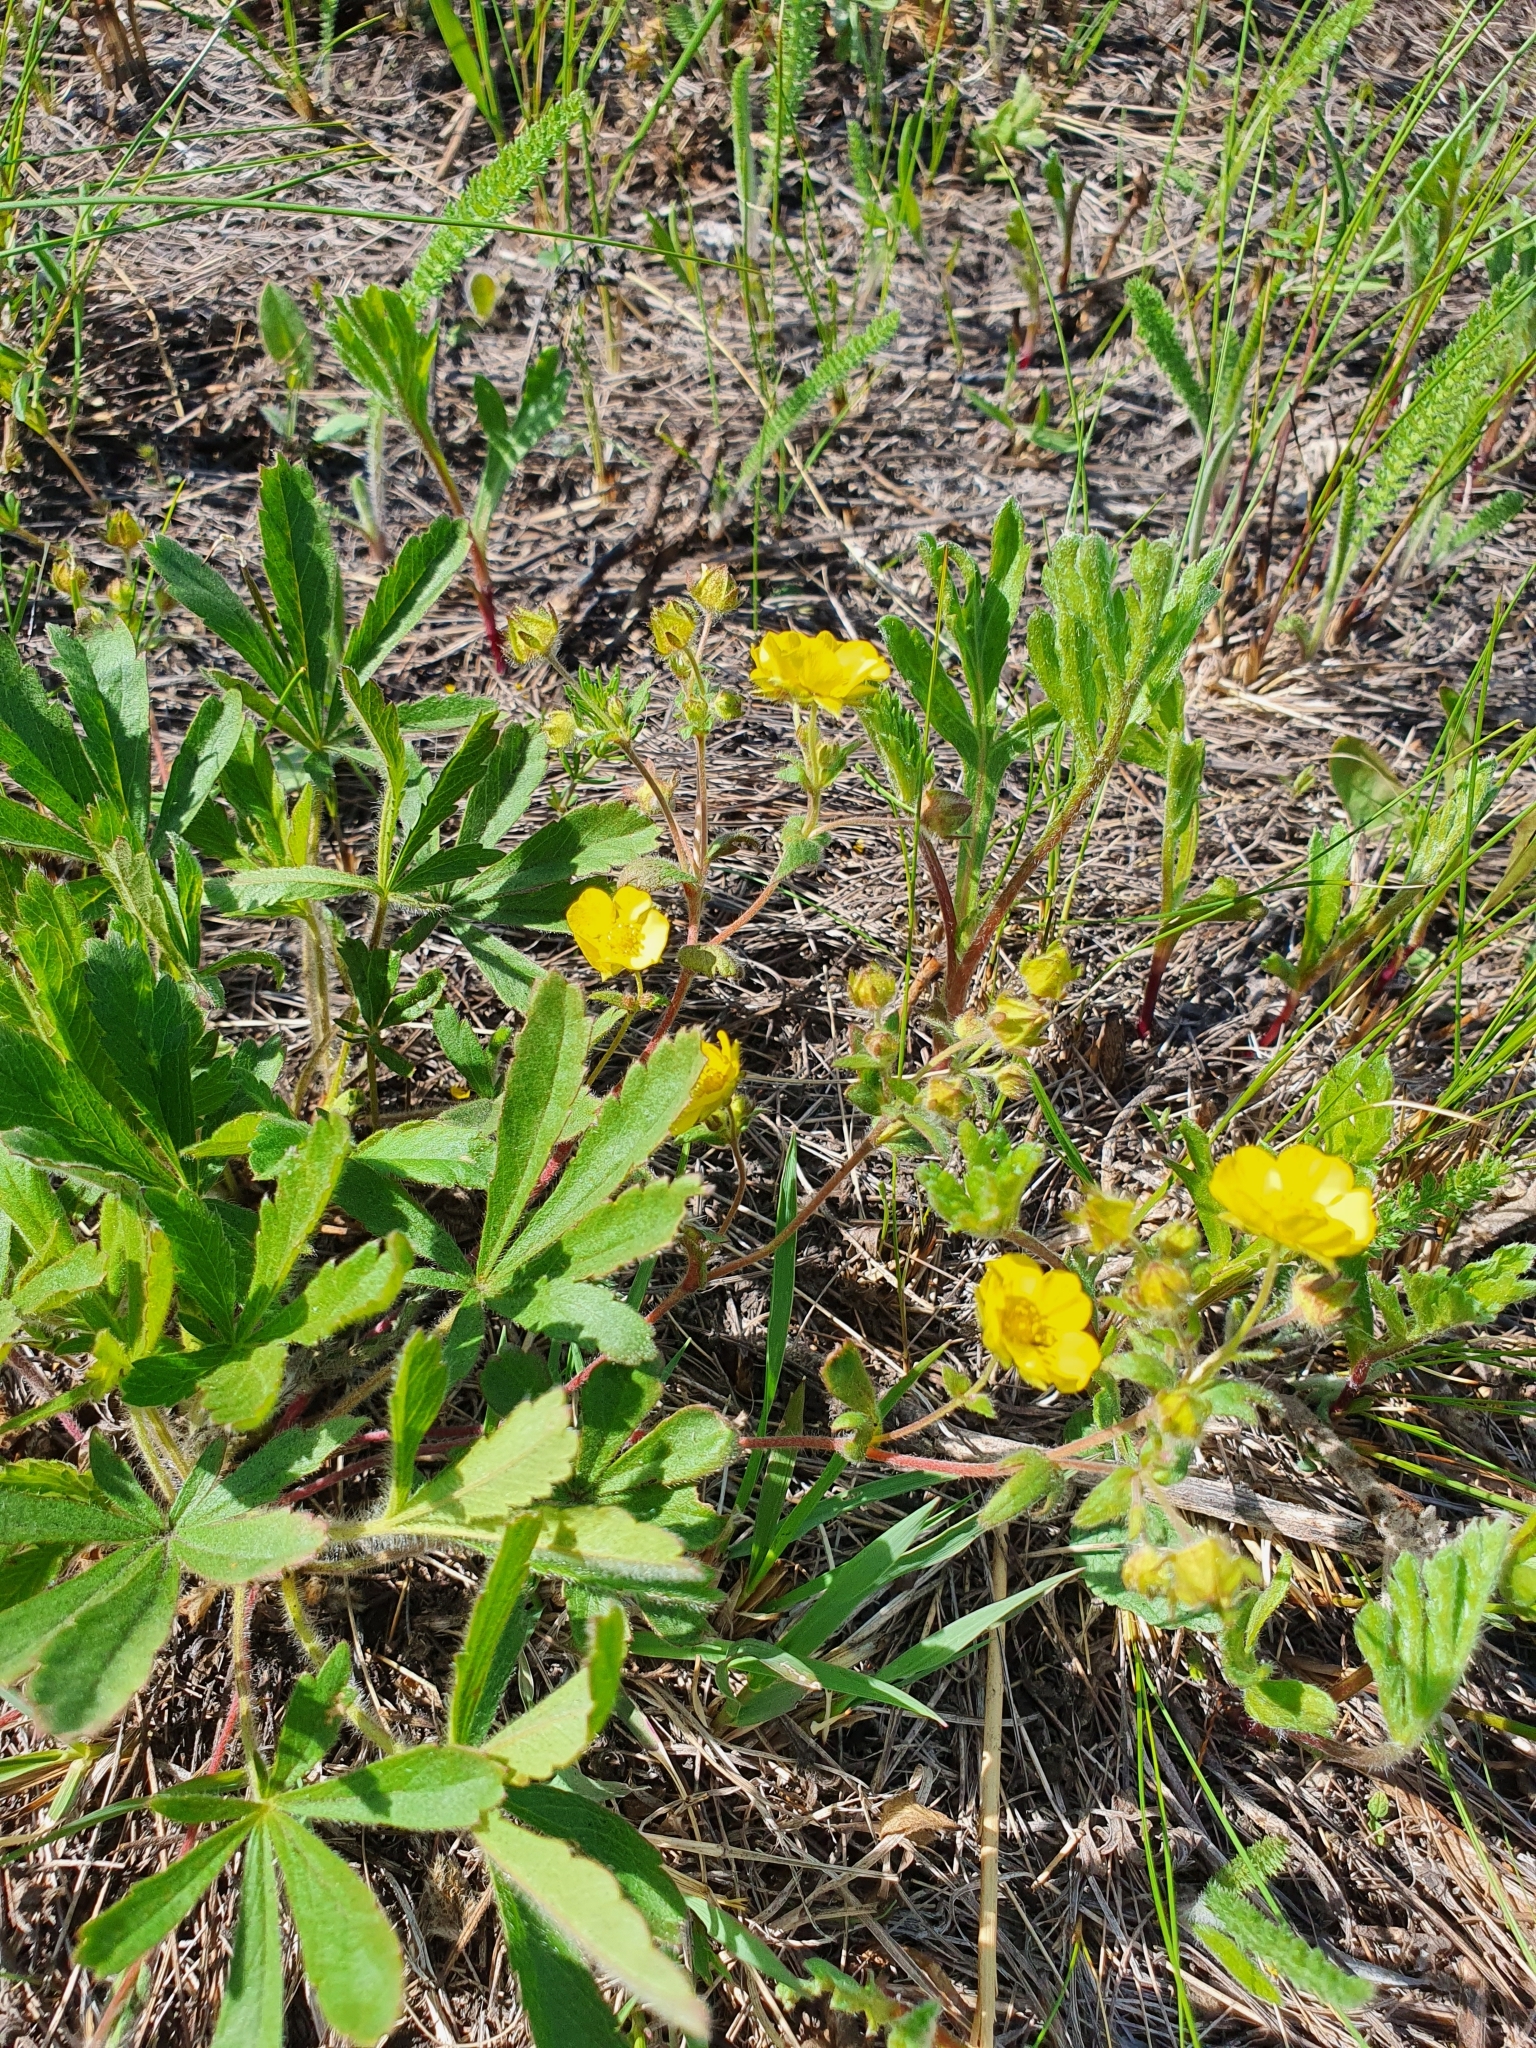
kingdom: Plantae
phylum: Tracheophyta
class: Magnoliopsida
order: Rosales
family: Rosaceae
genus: Potentilla
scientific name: Potentilla humifusa
